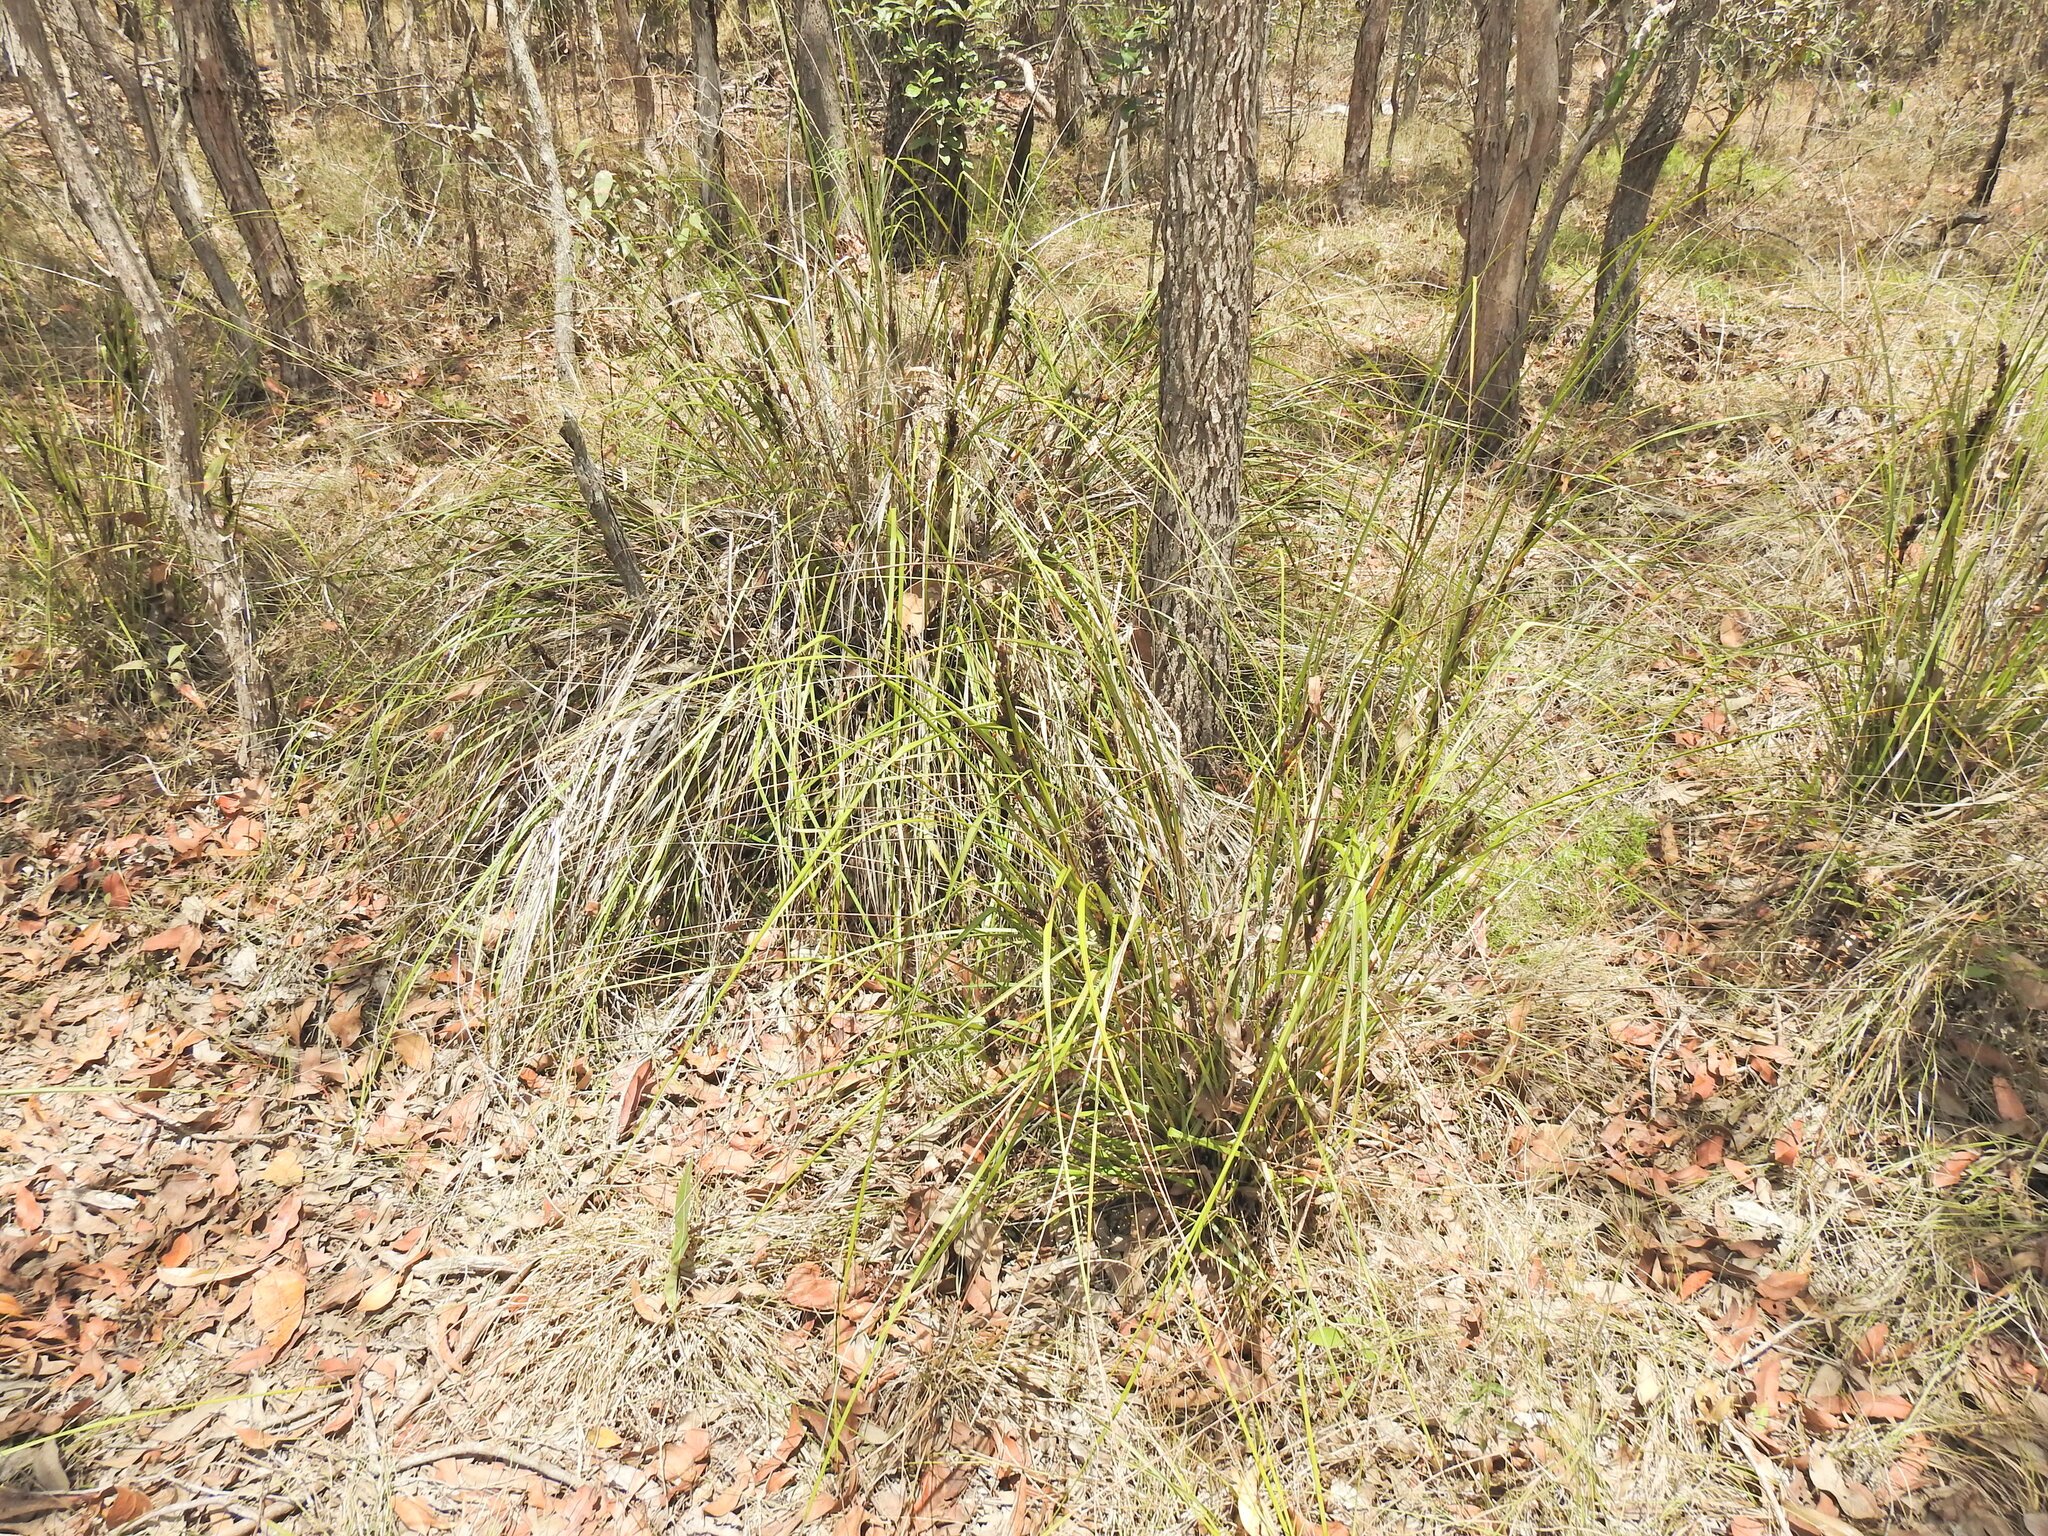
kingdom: Plantae
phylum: Tracheophyta
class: Liliopsida
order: Poales
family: Cyperaceae
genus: Gahnia
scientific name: Gahnia aspera
